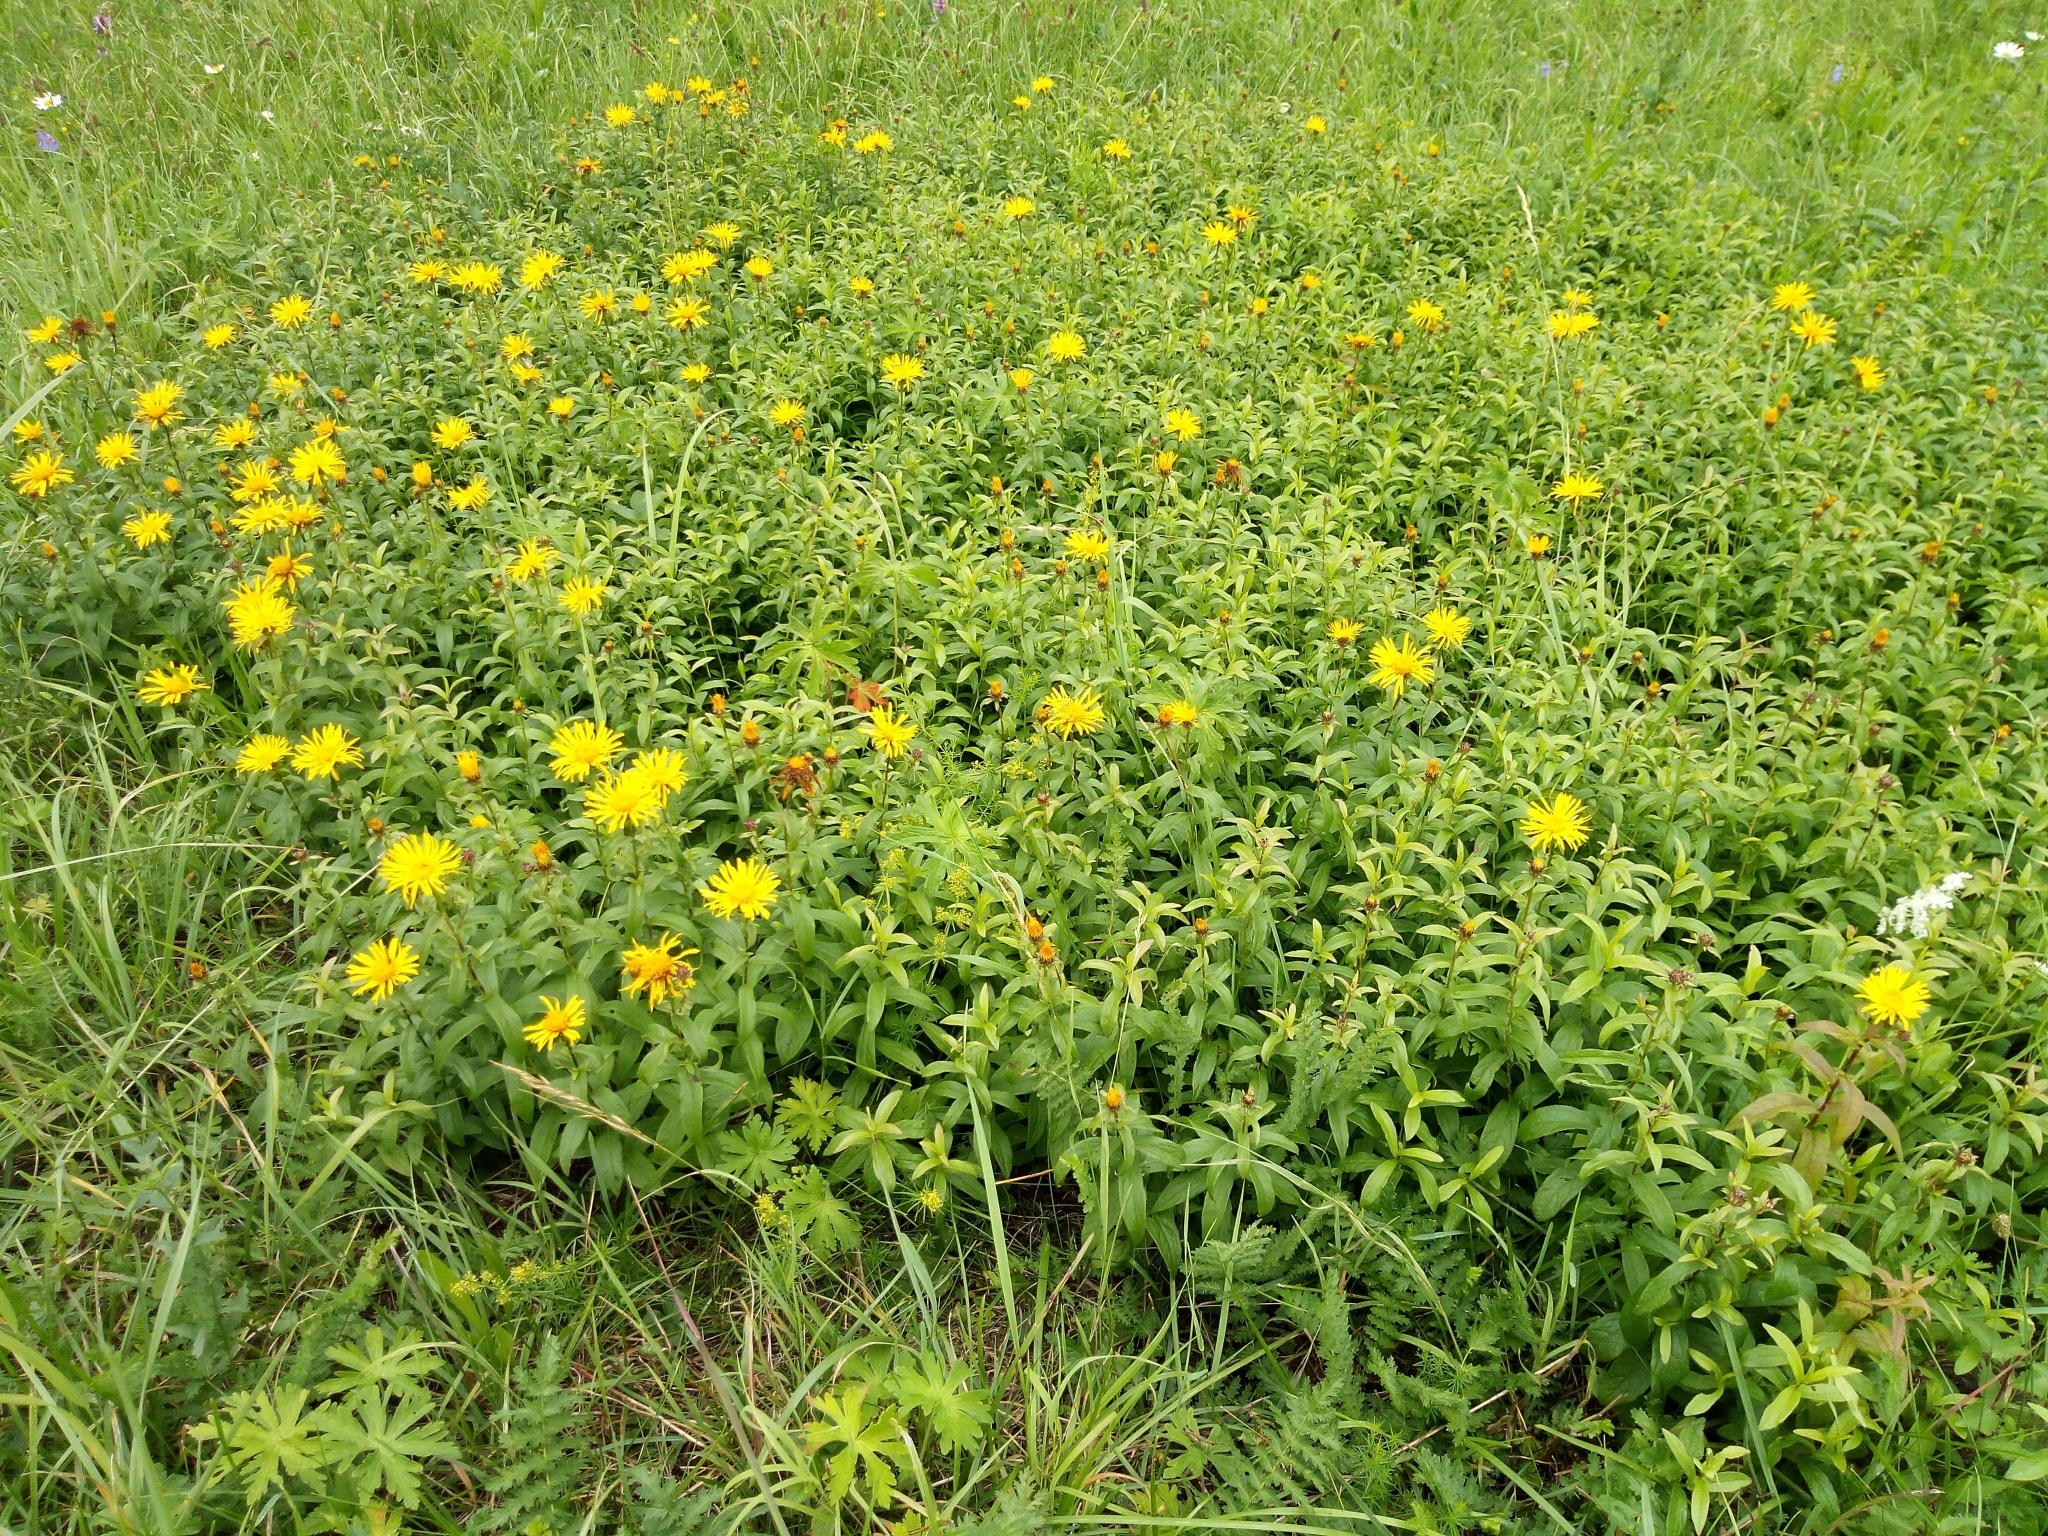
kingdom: Plantae
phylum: Tracheophyta
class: Magnoliopsida
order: Asterales
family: Asteraceae
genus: Pentanema
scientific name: Pentanema salicinum
